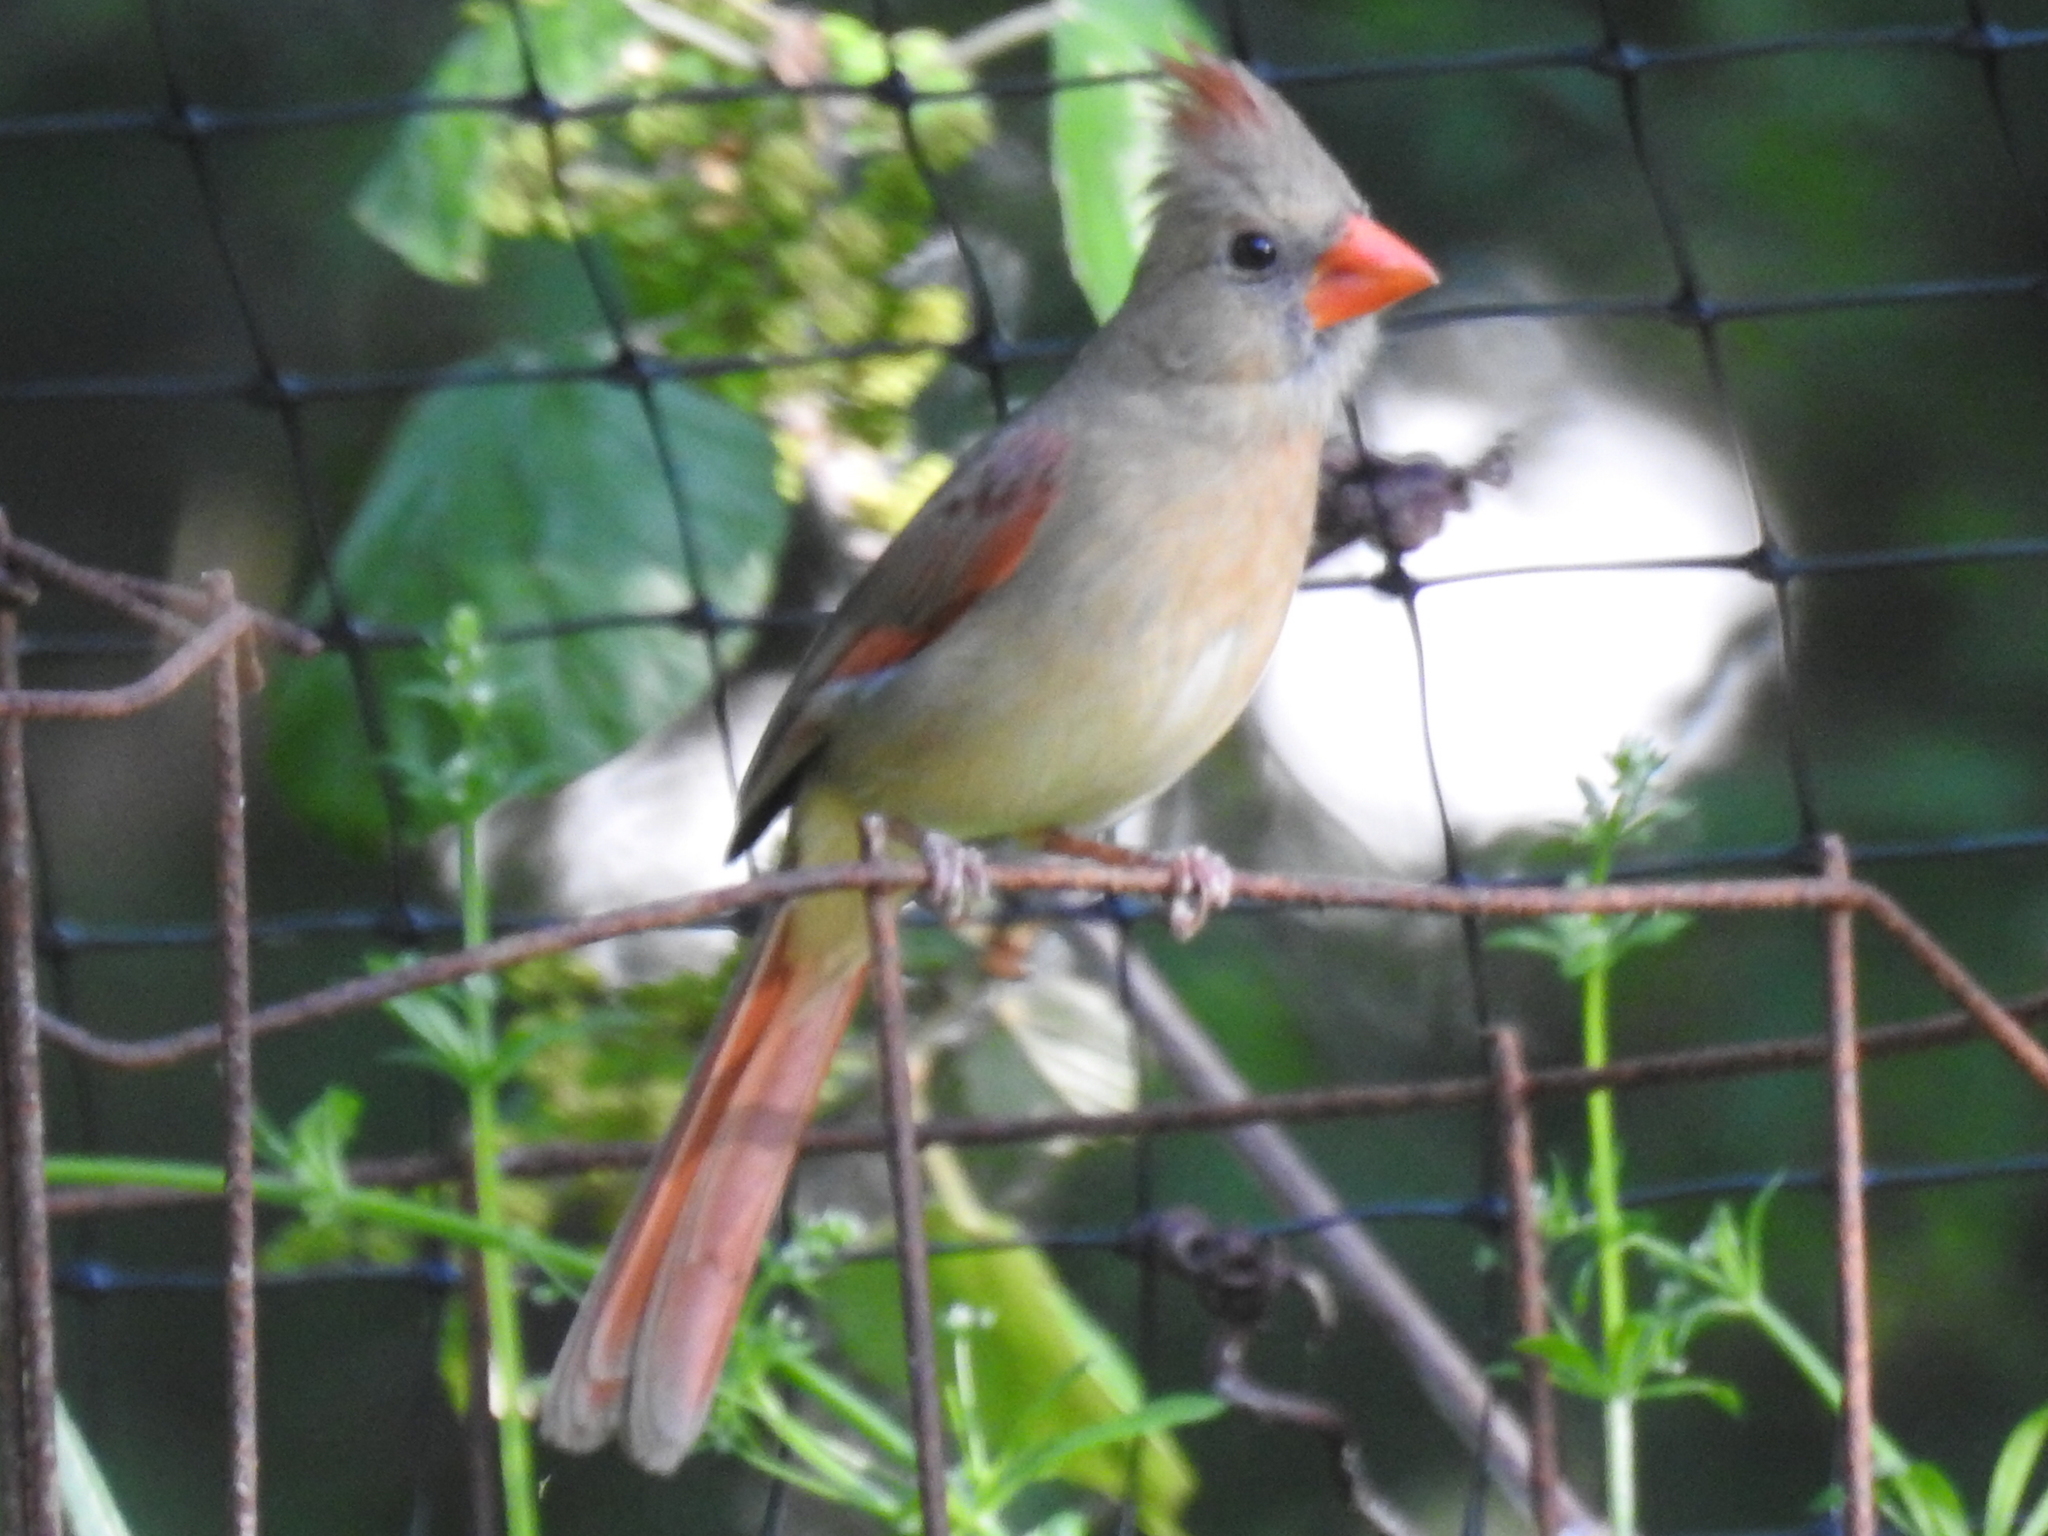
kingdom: Animalia
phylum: Chordata
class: Aves
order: Passeriformes
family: Cardinalidae
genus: Cardinalis
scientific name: Cardinalis cardinalis
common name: Northern cardinal
